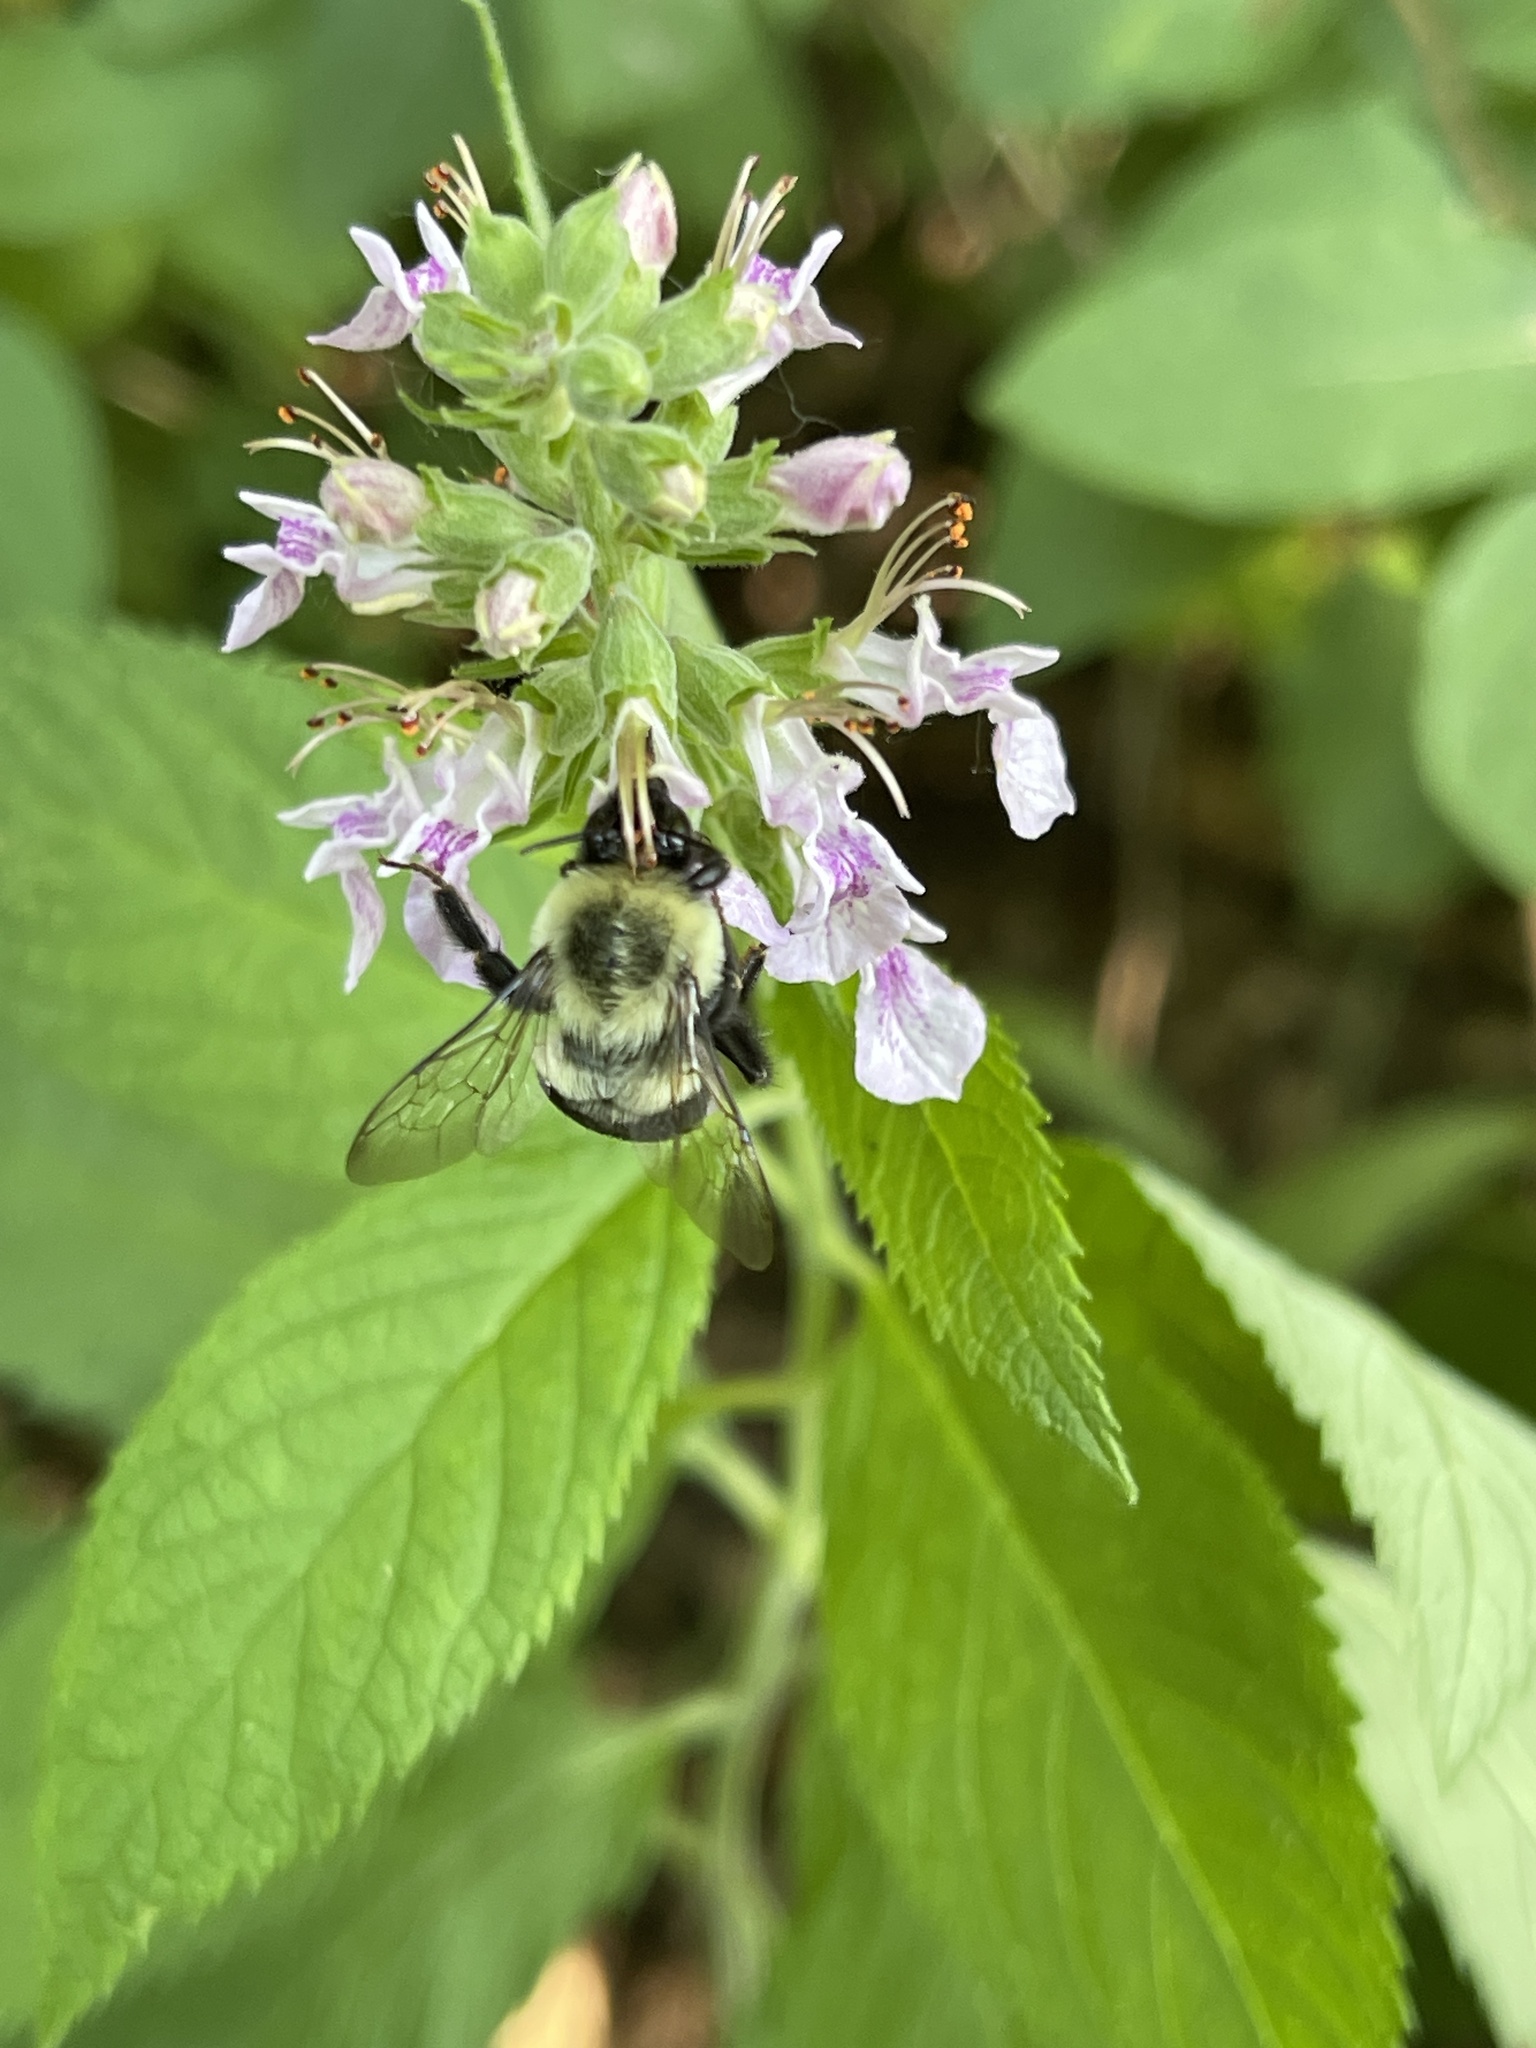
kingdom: Animalia
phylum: Arthropoda
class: Insecta
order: Hymenoptera
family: Apidae
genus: Bombus
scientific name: Bombus impatiens
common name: Common eastern bumble bee
